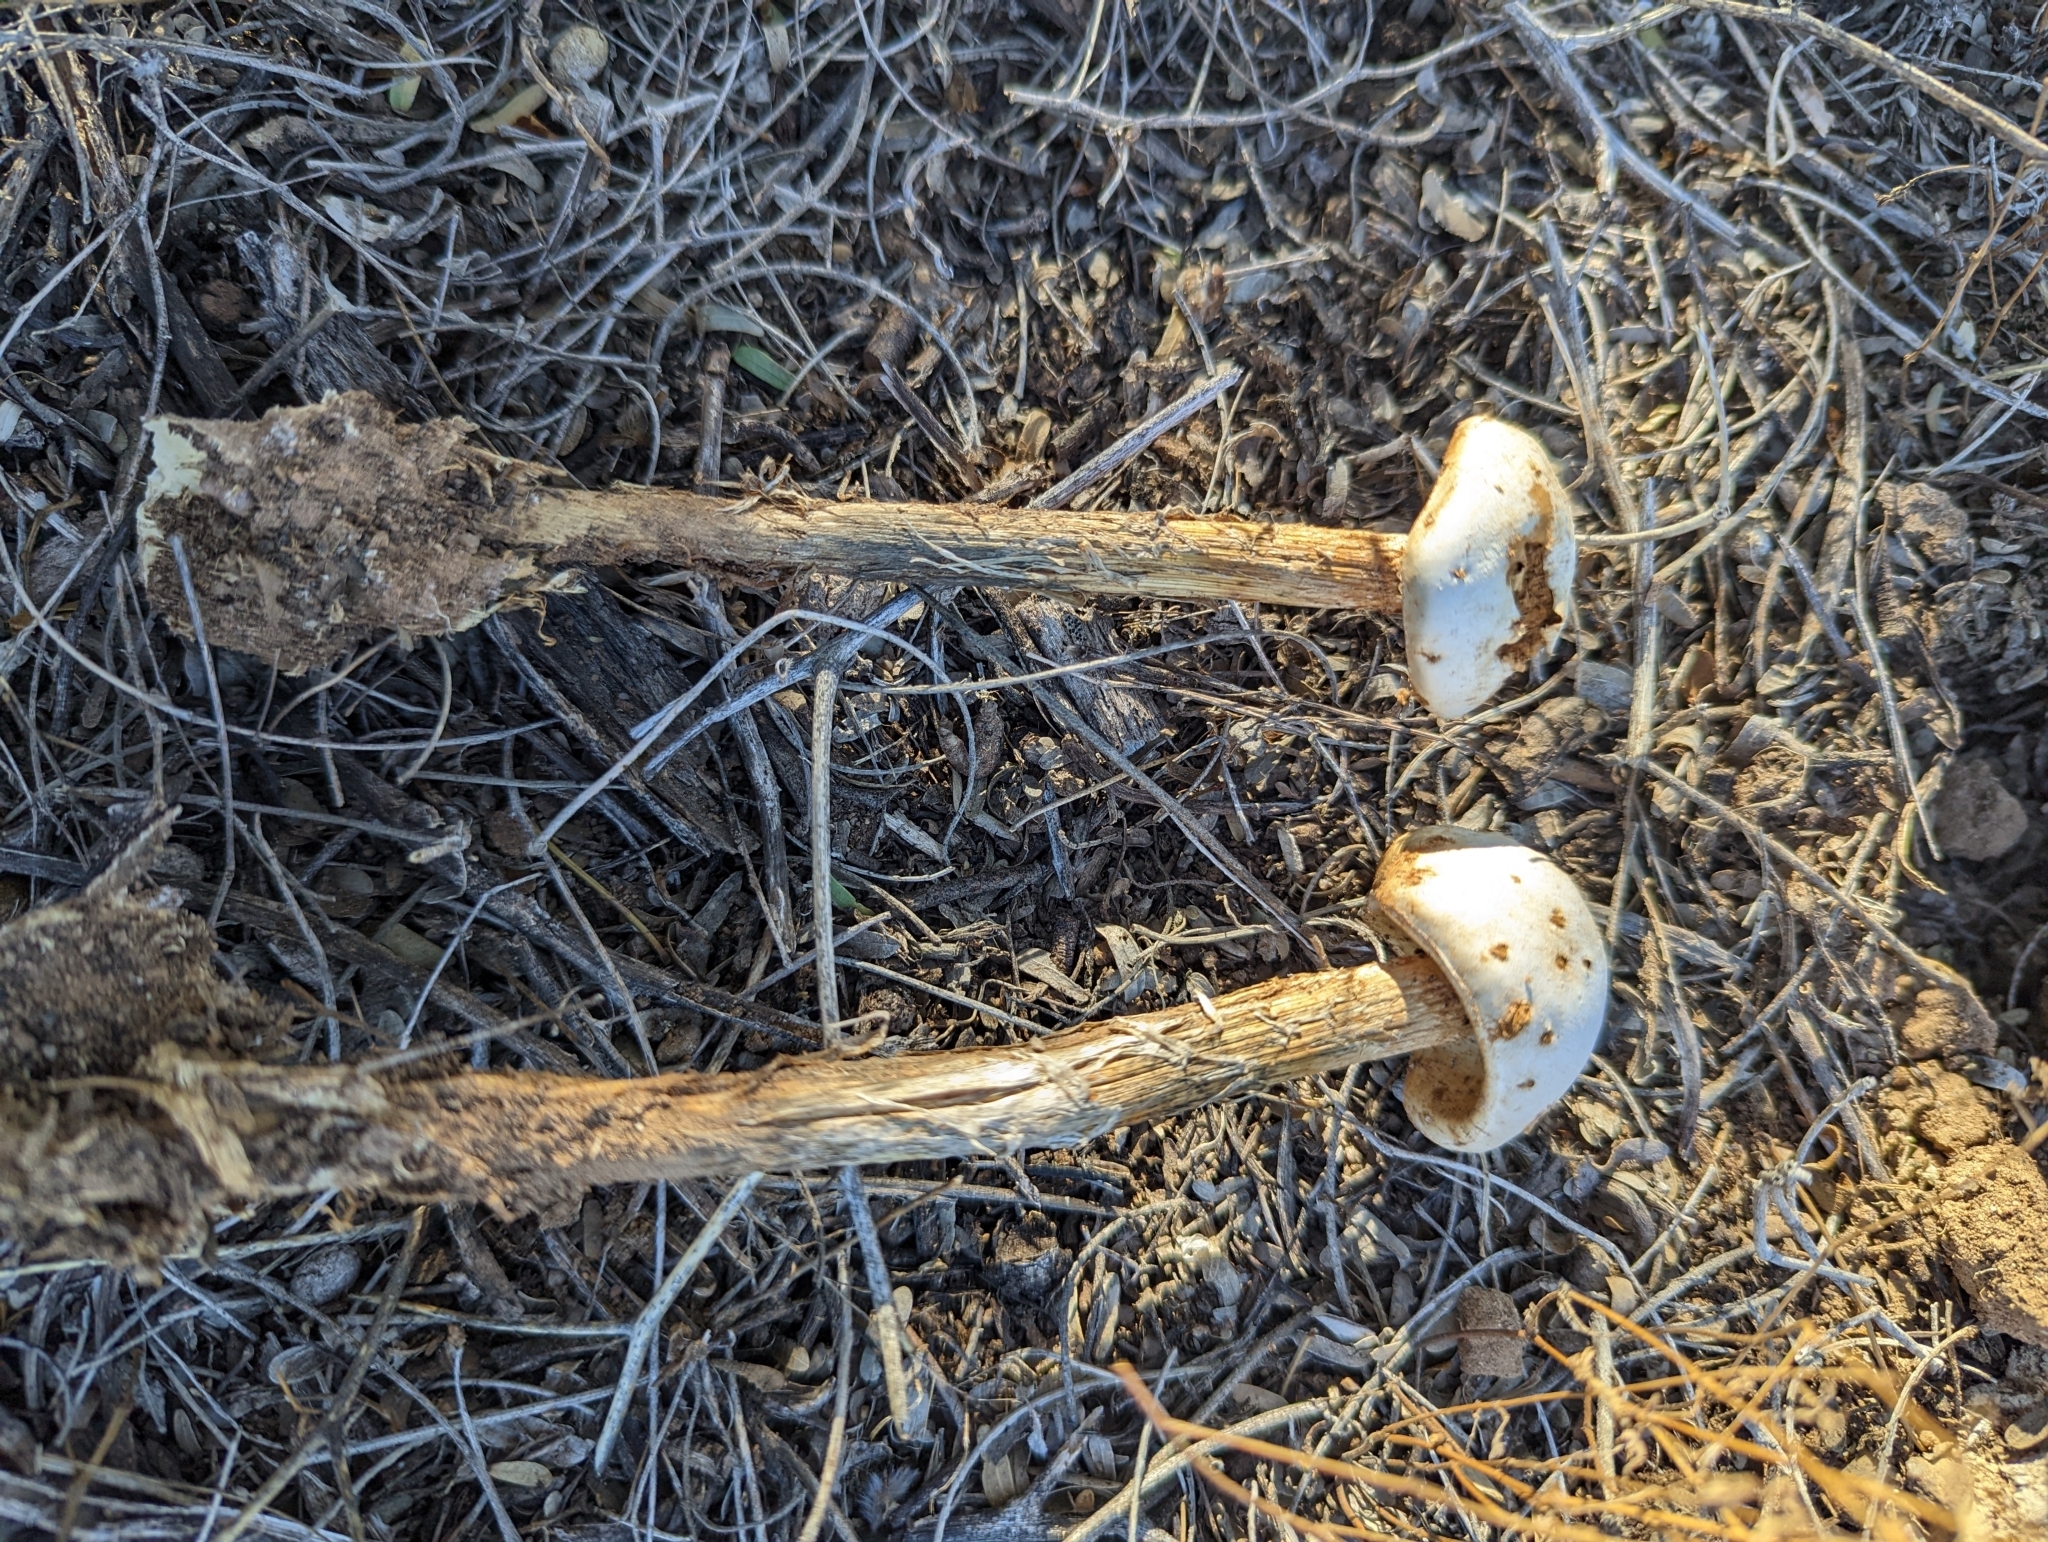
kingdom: Fungi
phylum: Basidiomycota
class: Agaricomycetes
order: Agaricales
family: Agaricaceae
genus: Battarreoides
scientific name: Battarreoides diguetii
